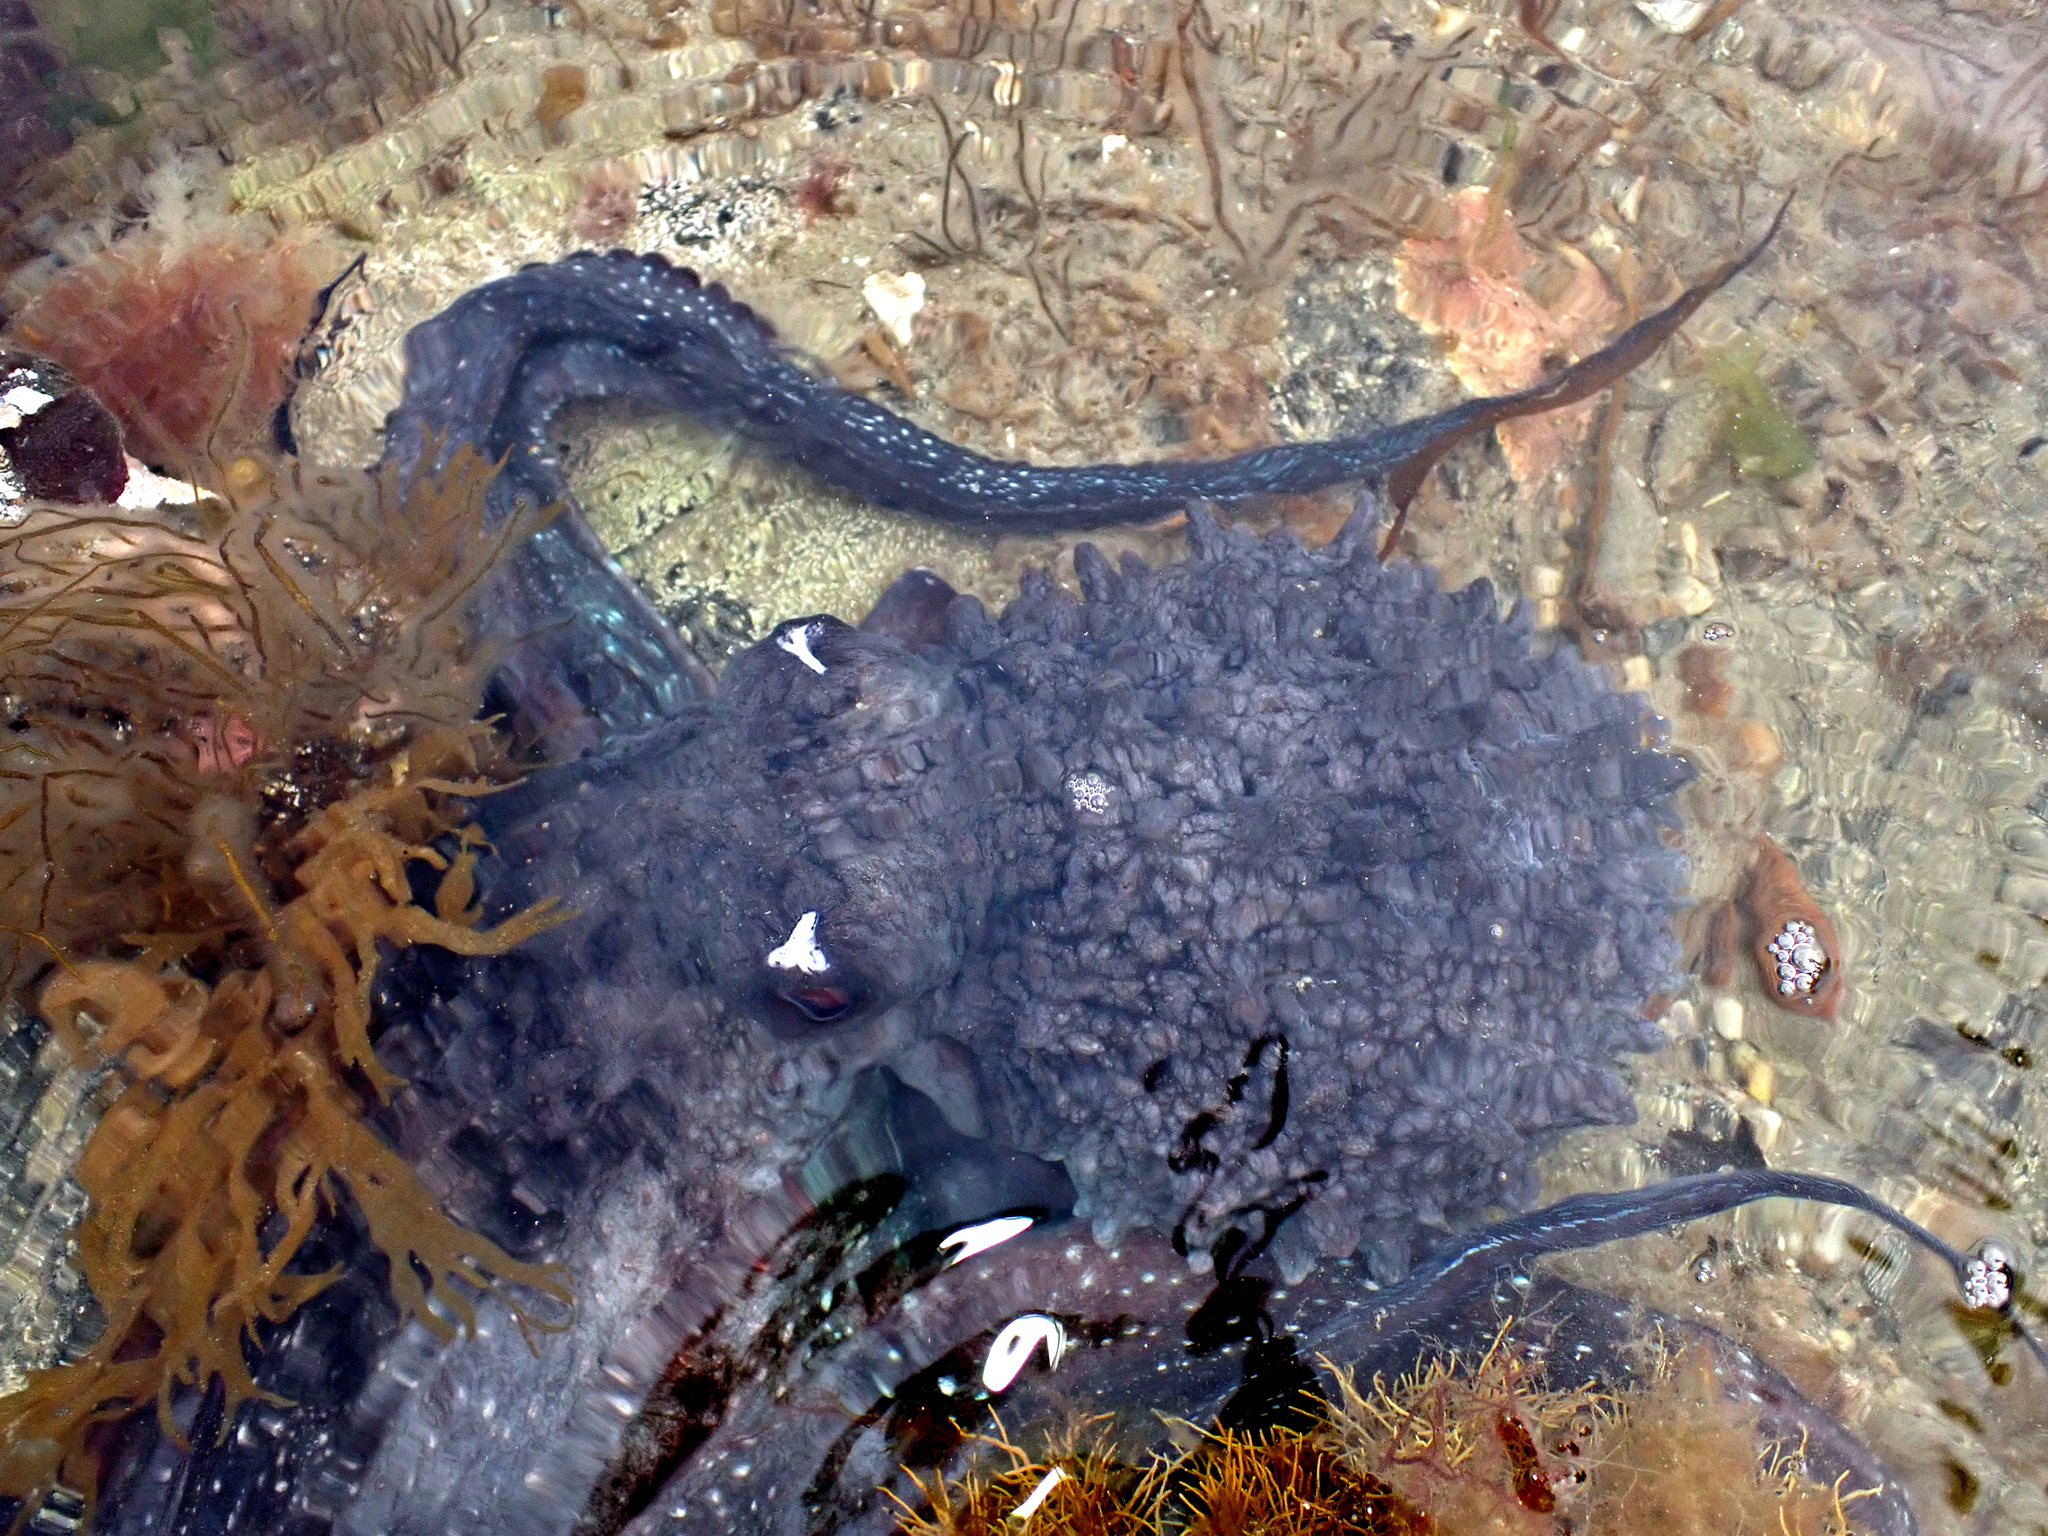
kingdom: Animalia
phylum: Mollusca
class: Cephalopoda
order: Octopoda
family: Octopodidae
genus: Macroctopus
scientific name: Macroctopus maorum
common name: Maori octopus
